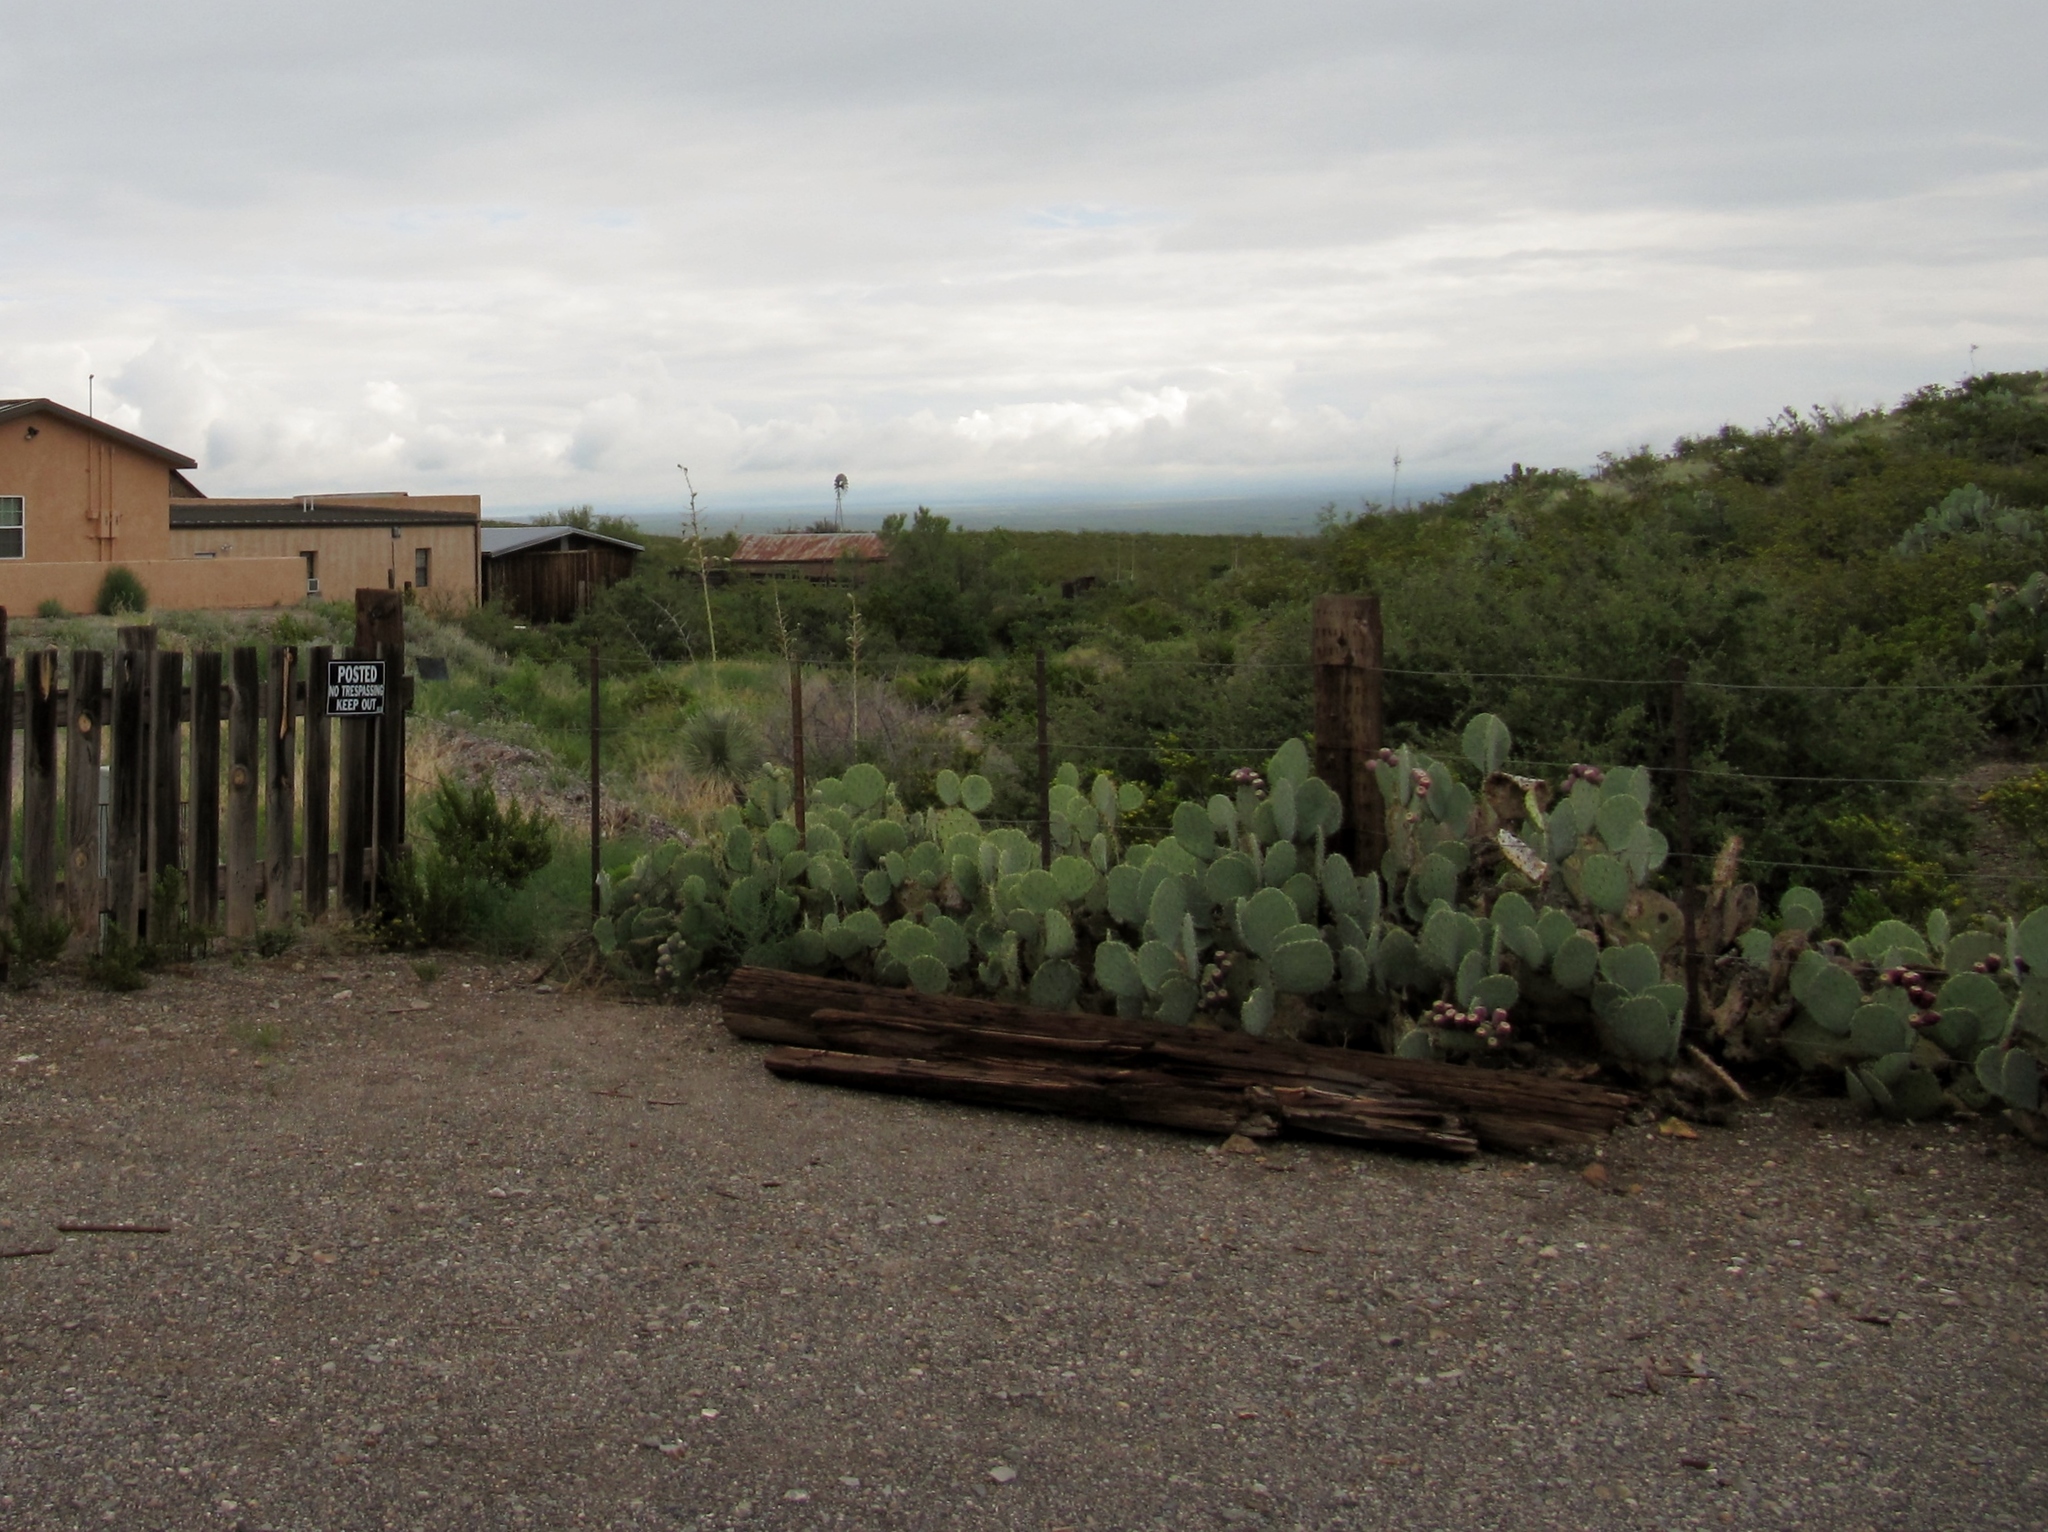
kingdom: Plantae
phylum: Tracheophyta
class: Magnoliopsida
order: Caryophyllales
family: Cactaceae
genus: Opuntia
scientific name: Opuntia engelmannii
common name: Cactus-apple
